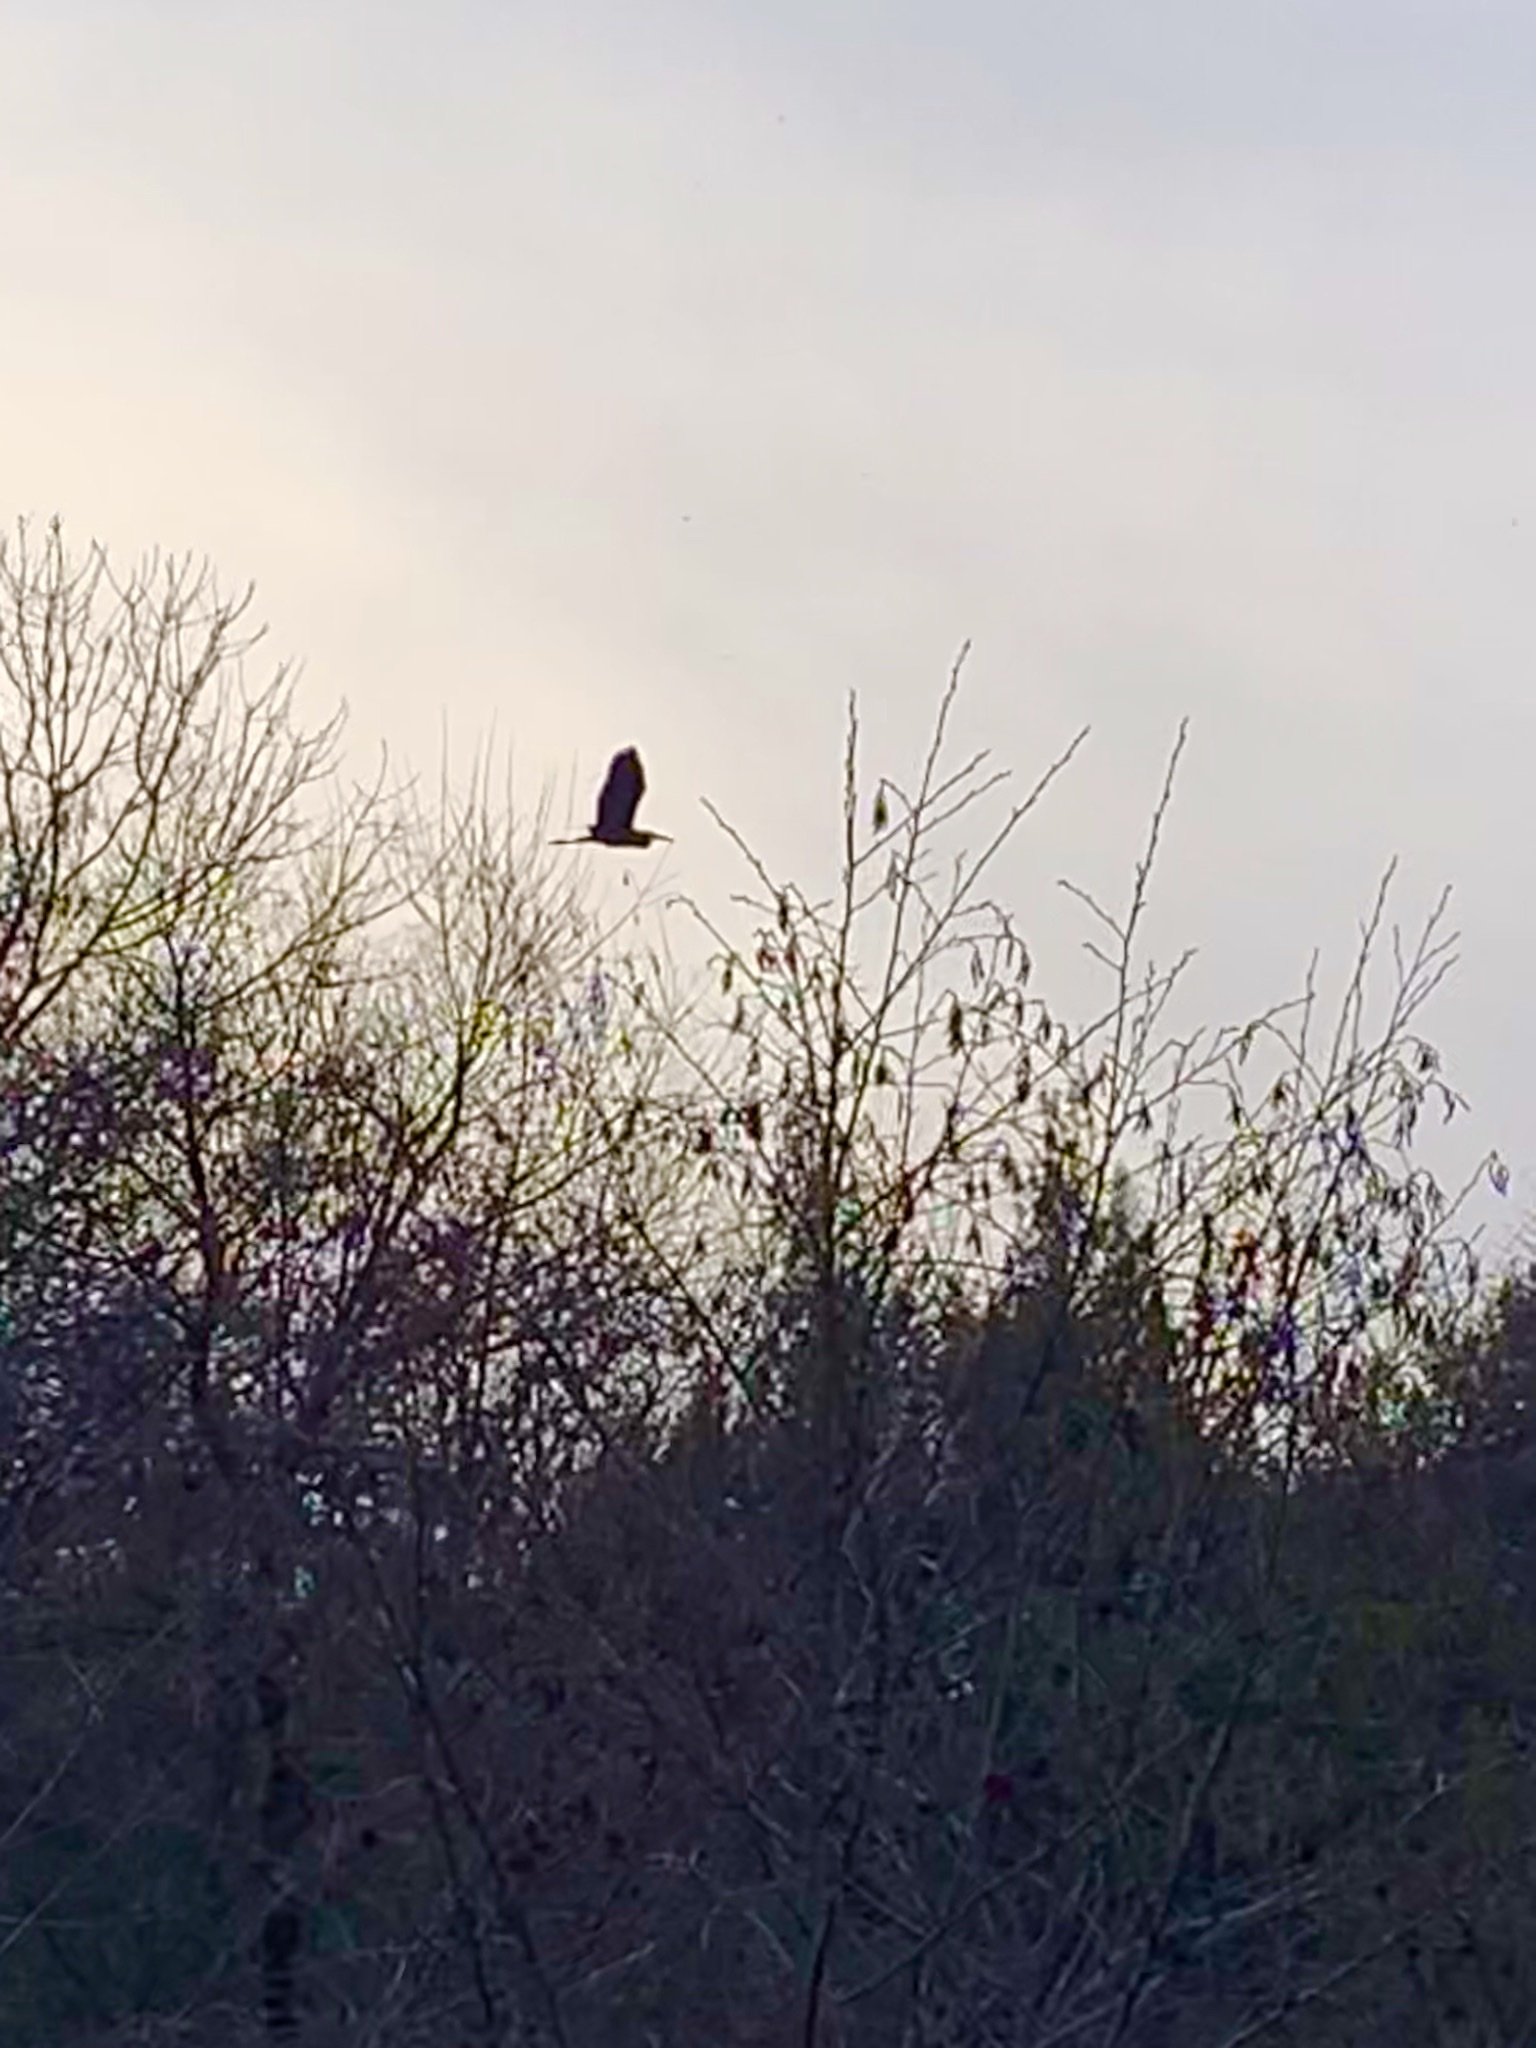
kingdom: Animalia
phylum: Chordata
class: Aves
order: Pelecaniformes
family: Ardeidae
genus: Ardea
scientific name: Ardea herodias
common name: Great blue heron
